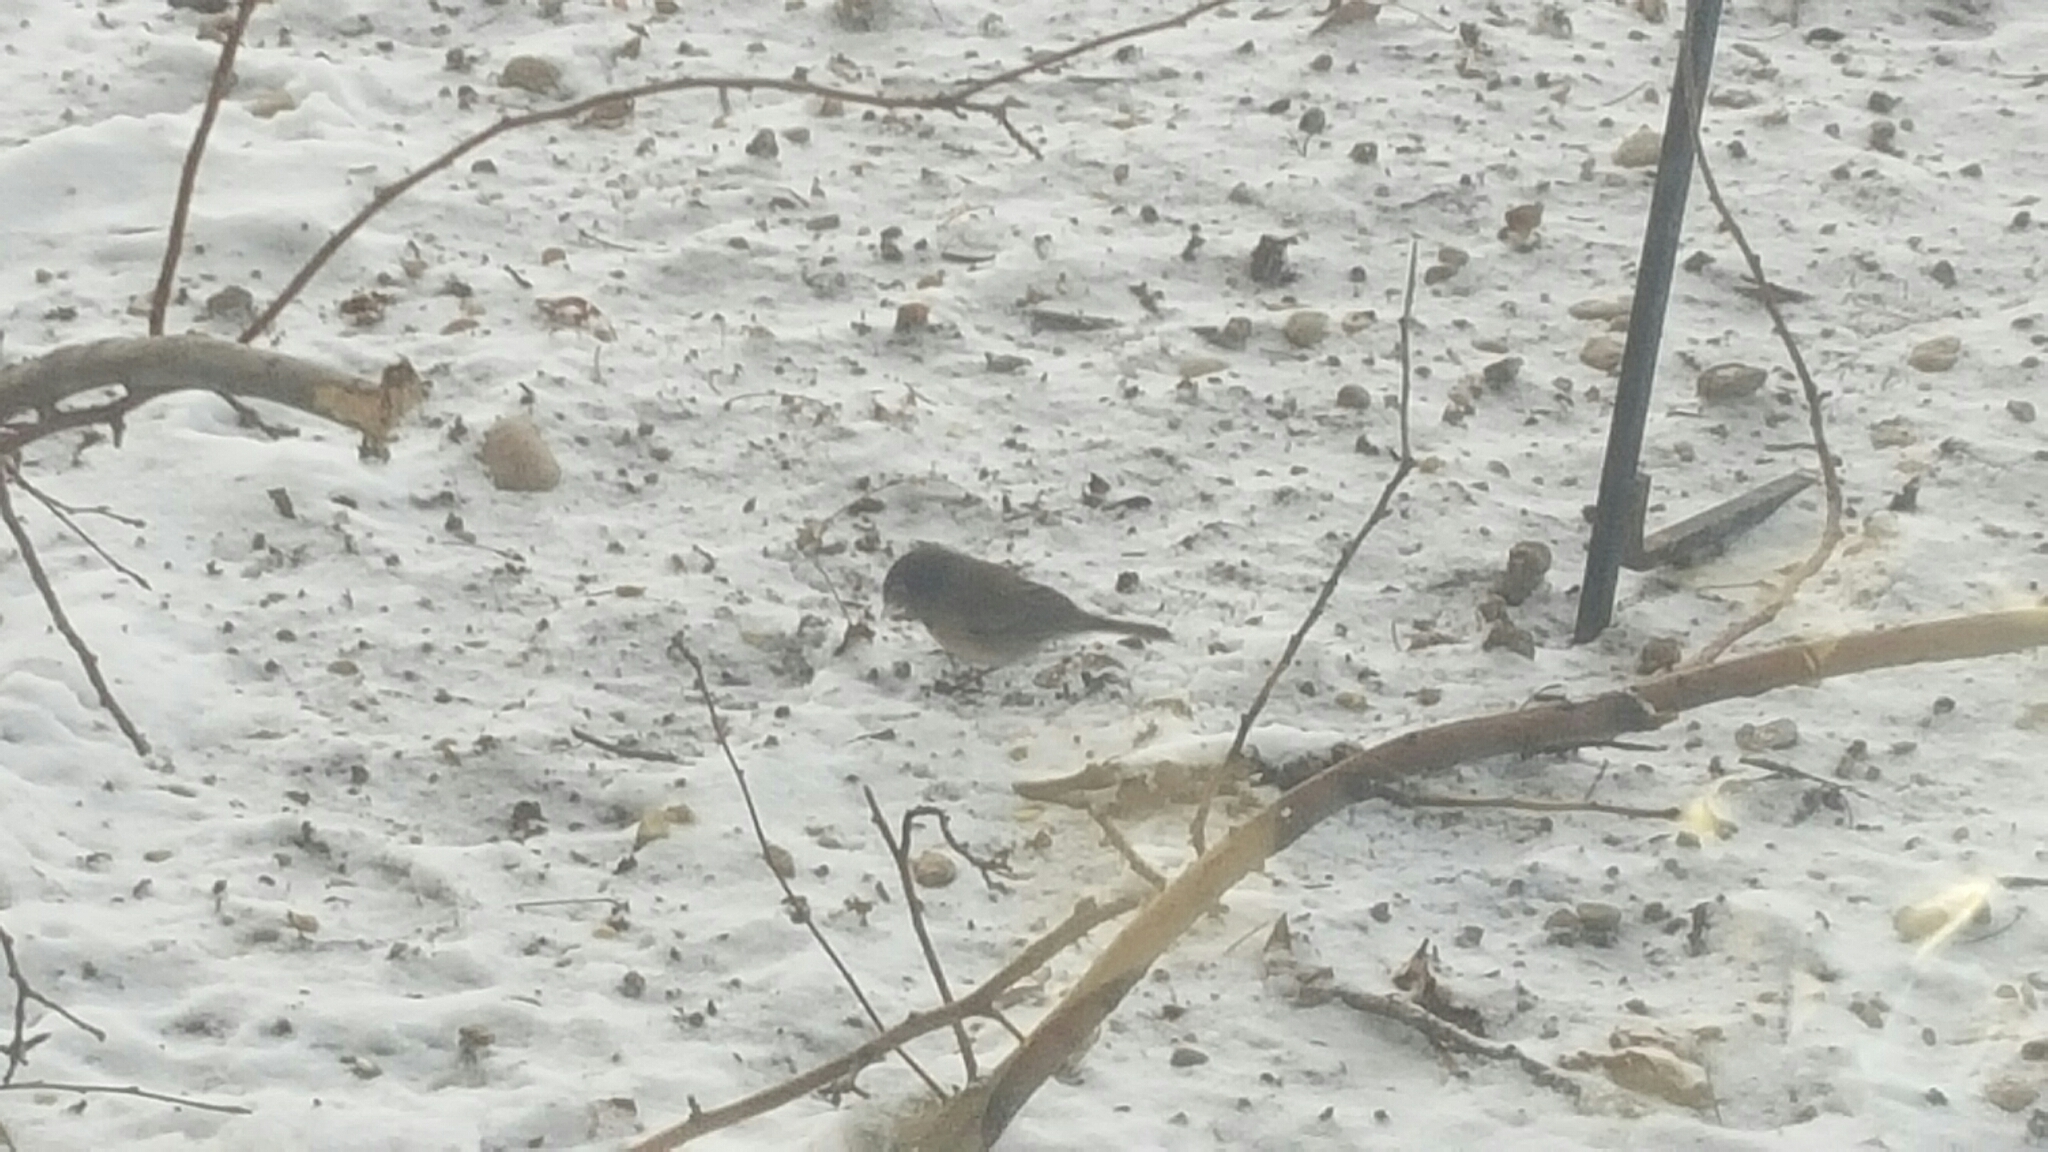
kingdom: Animalia
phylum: Chordata
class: Aves
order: Passeriformes
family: Passerellidae
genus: Junco
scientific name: Junco hyemalis
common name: Dark-eyed junco
